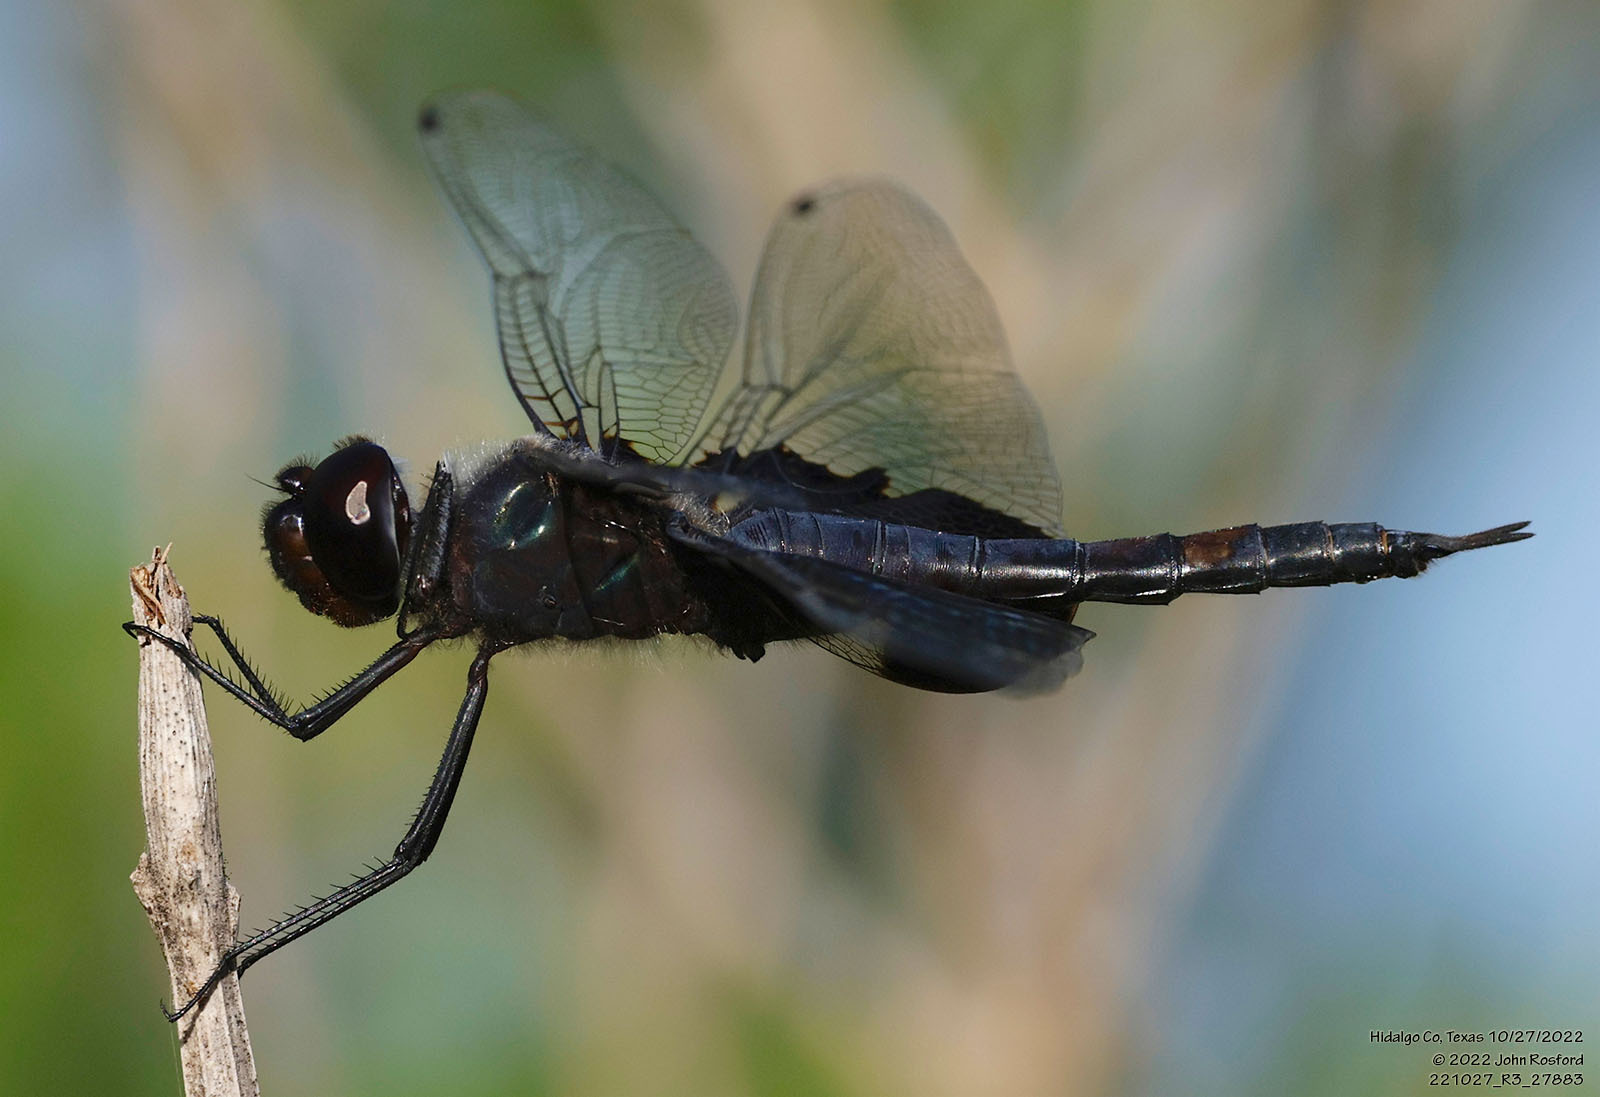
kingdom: Animalia
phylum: Arthropoda
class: Insecta
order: Odonata
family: Libellulidae
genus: Tramea
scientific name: Tramea lacerata
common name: Black saddlebags
